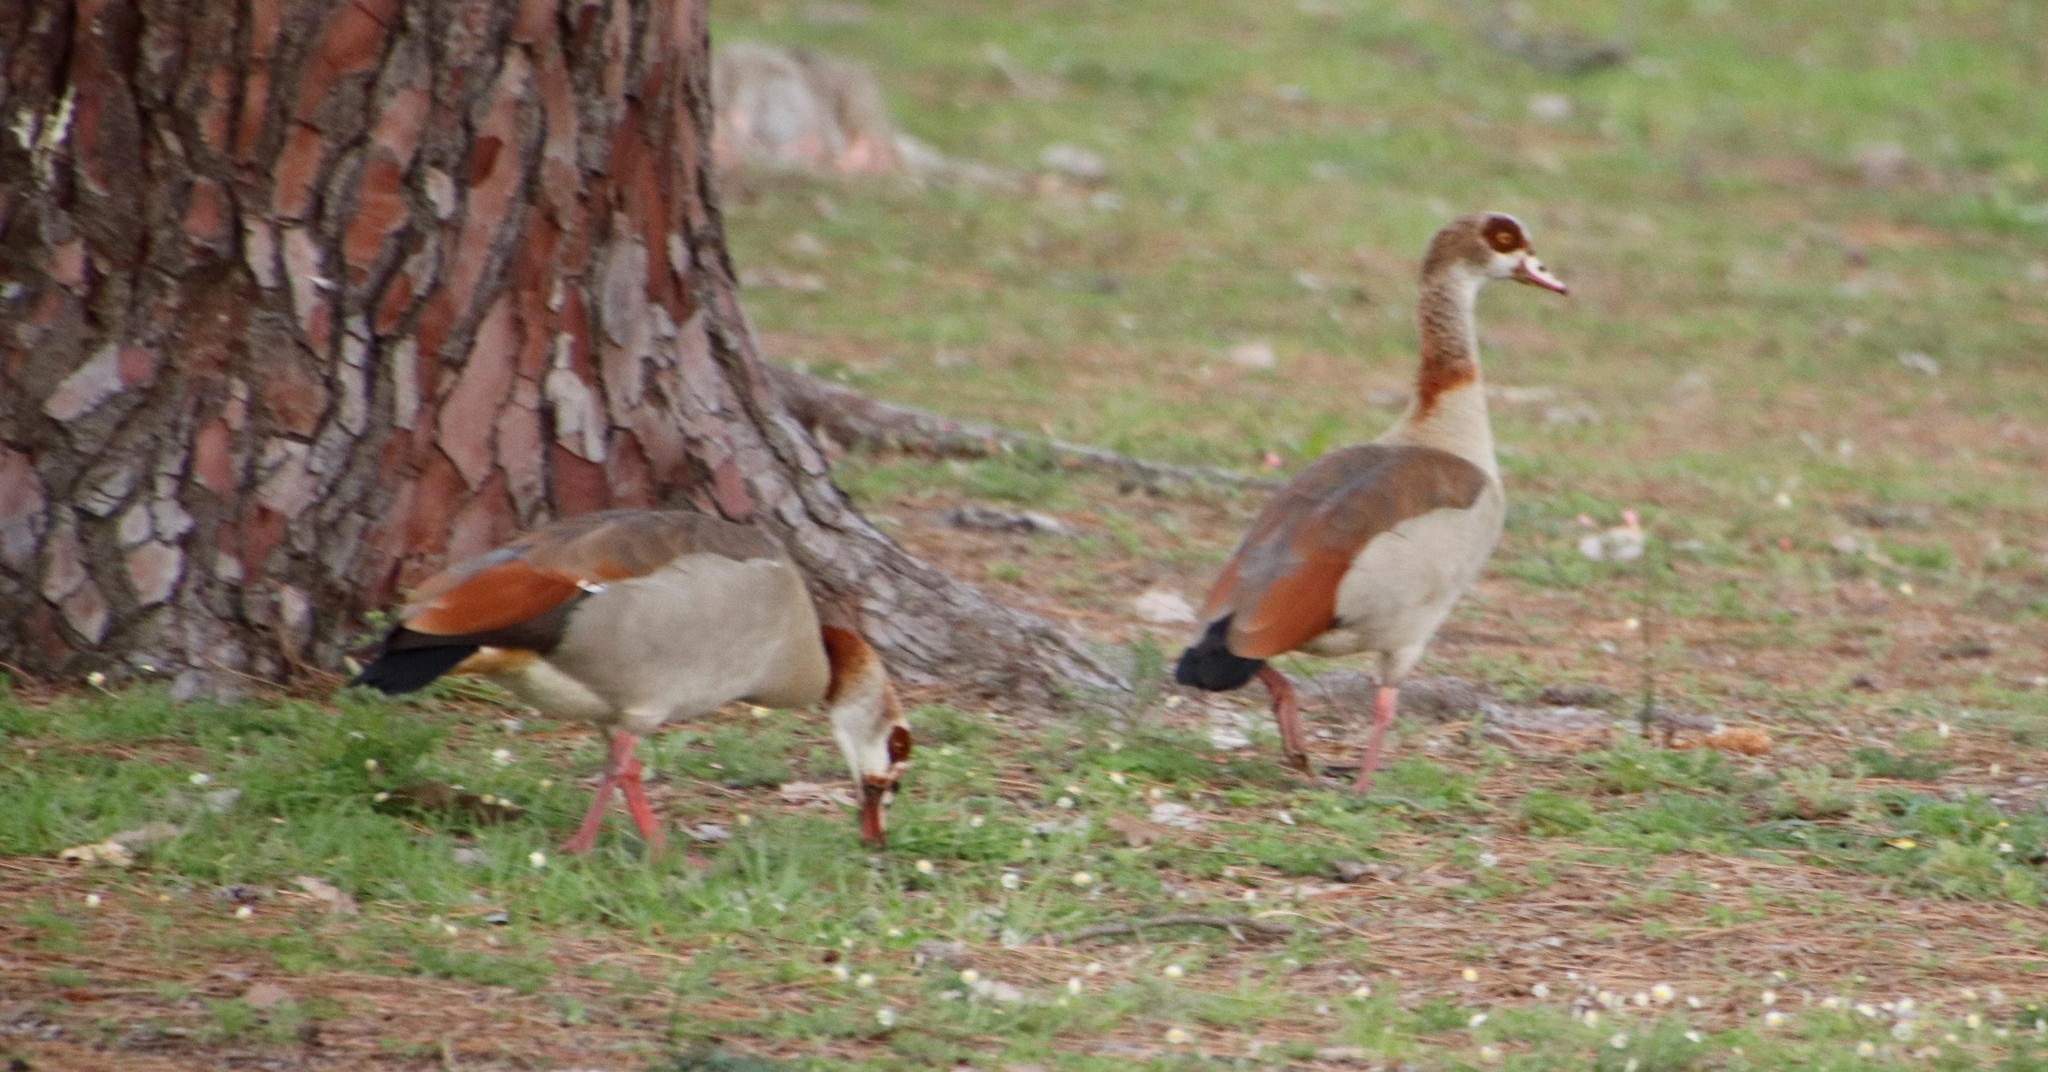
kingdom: Animalia
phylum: Chordata
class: Aves
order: Anseriformes
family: Anatidae
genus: Alopochen
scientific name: Alopochen aegyptiaca
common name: Egyptian goose
